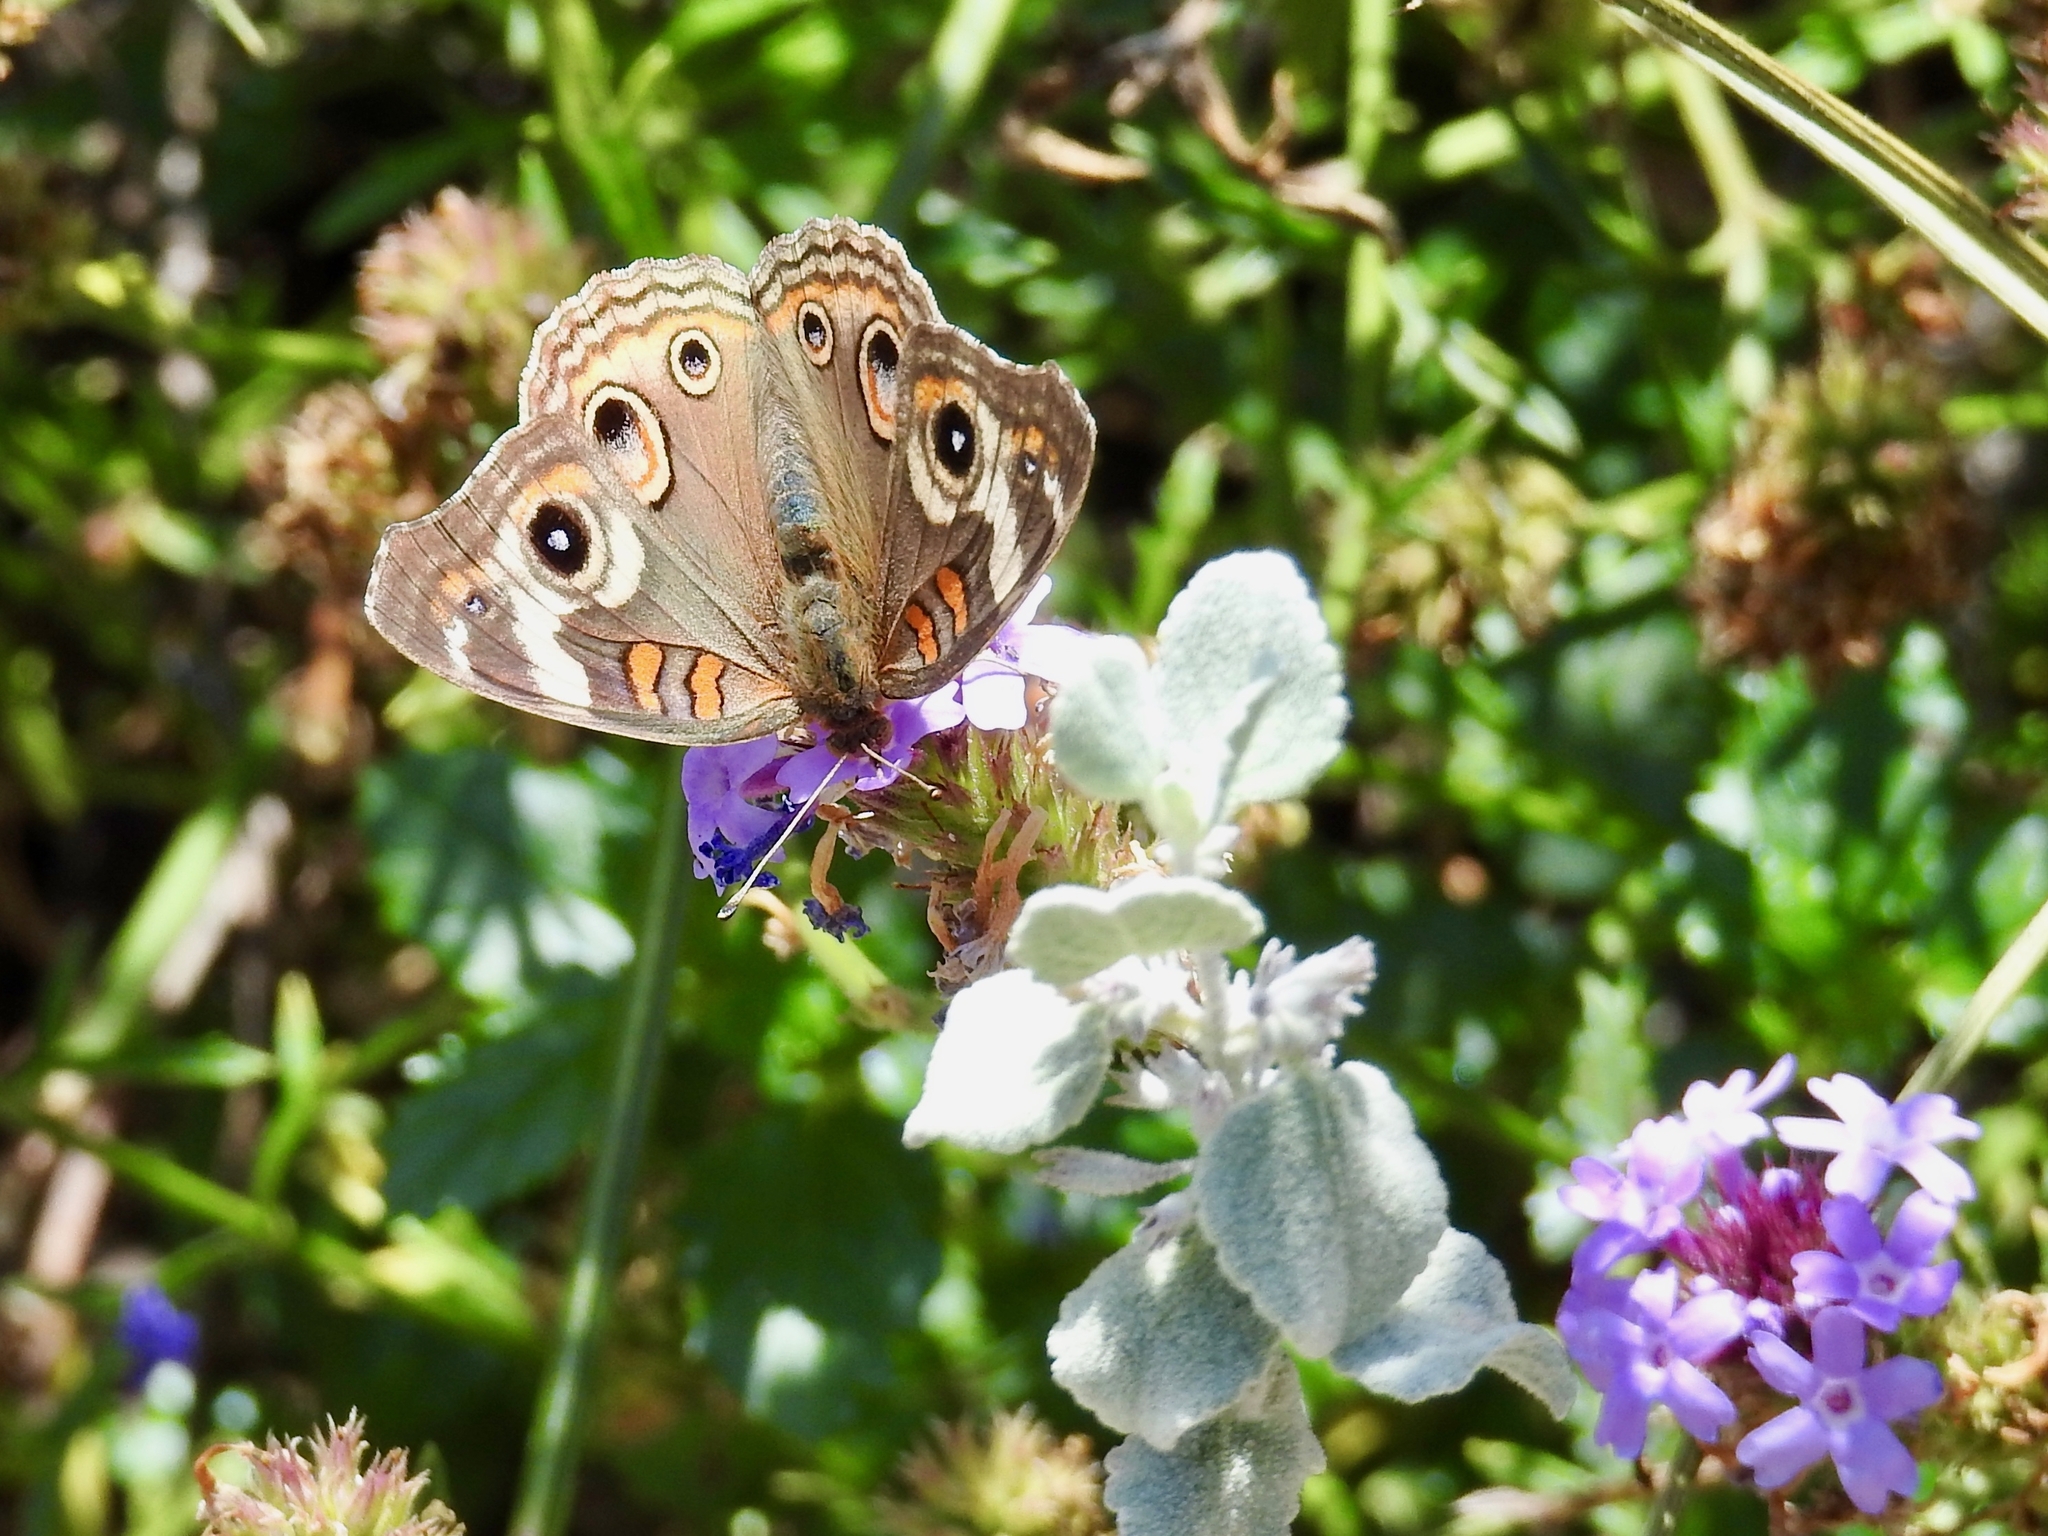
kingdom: Animalia
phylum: Arthropoda
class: Insecta
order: Lepidoptera
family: Nymphalidae
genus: Junonia
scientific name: Junonia grisea
